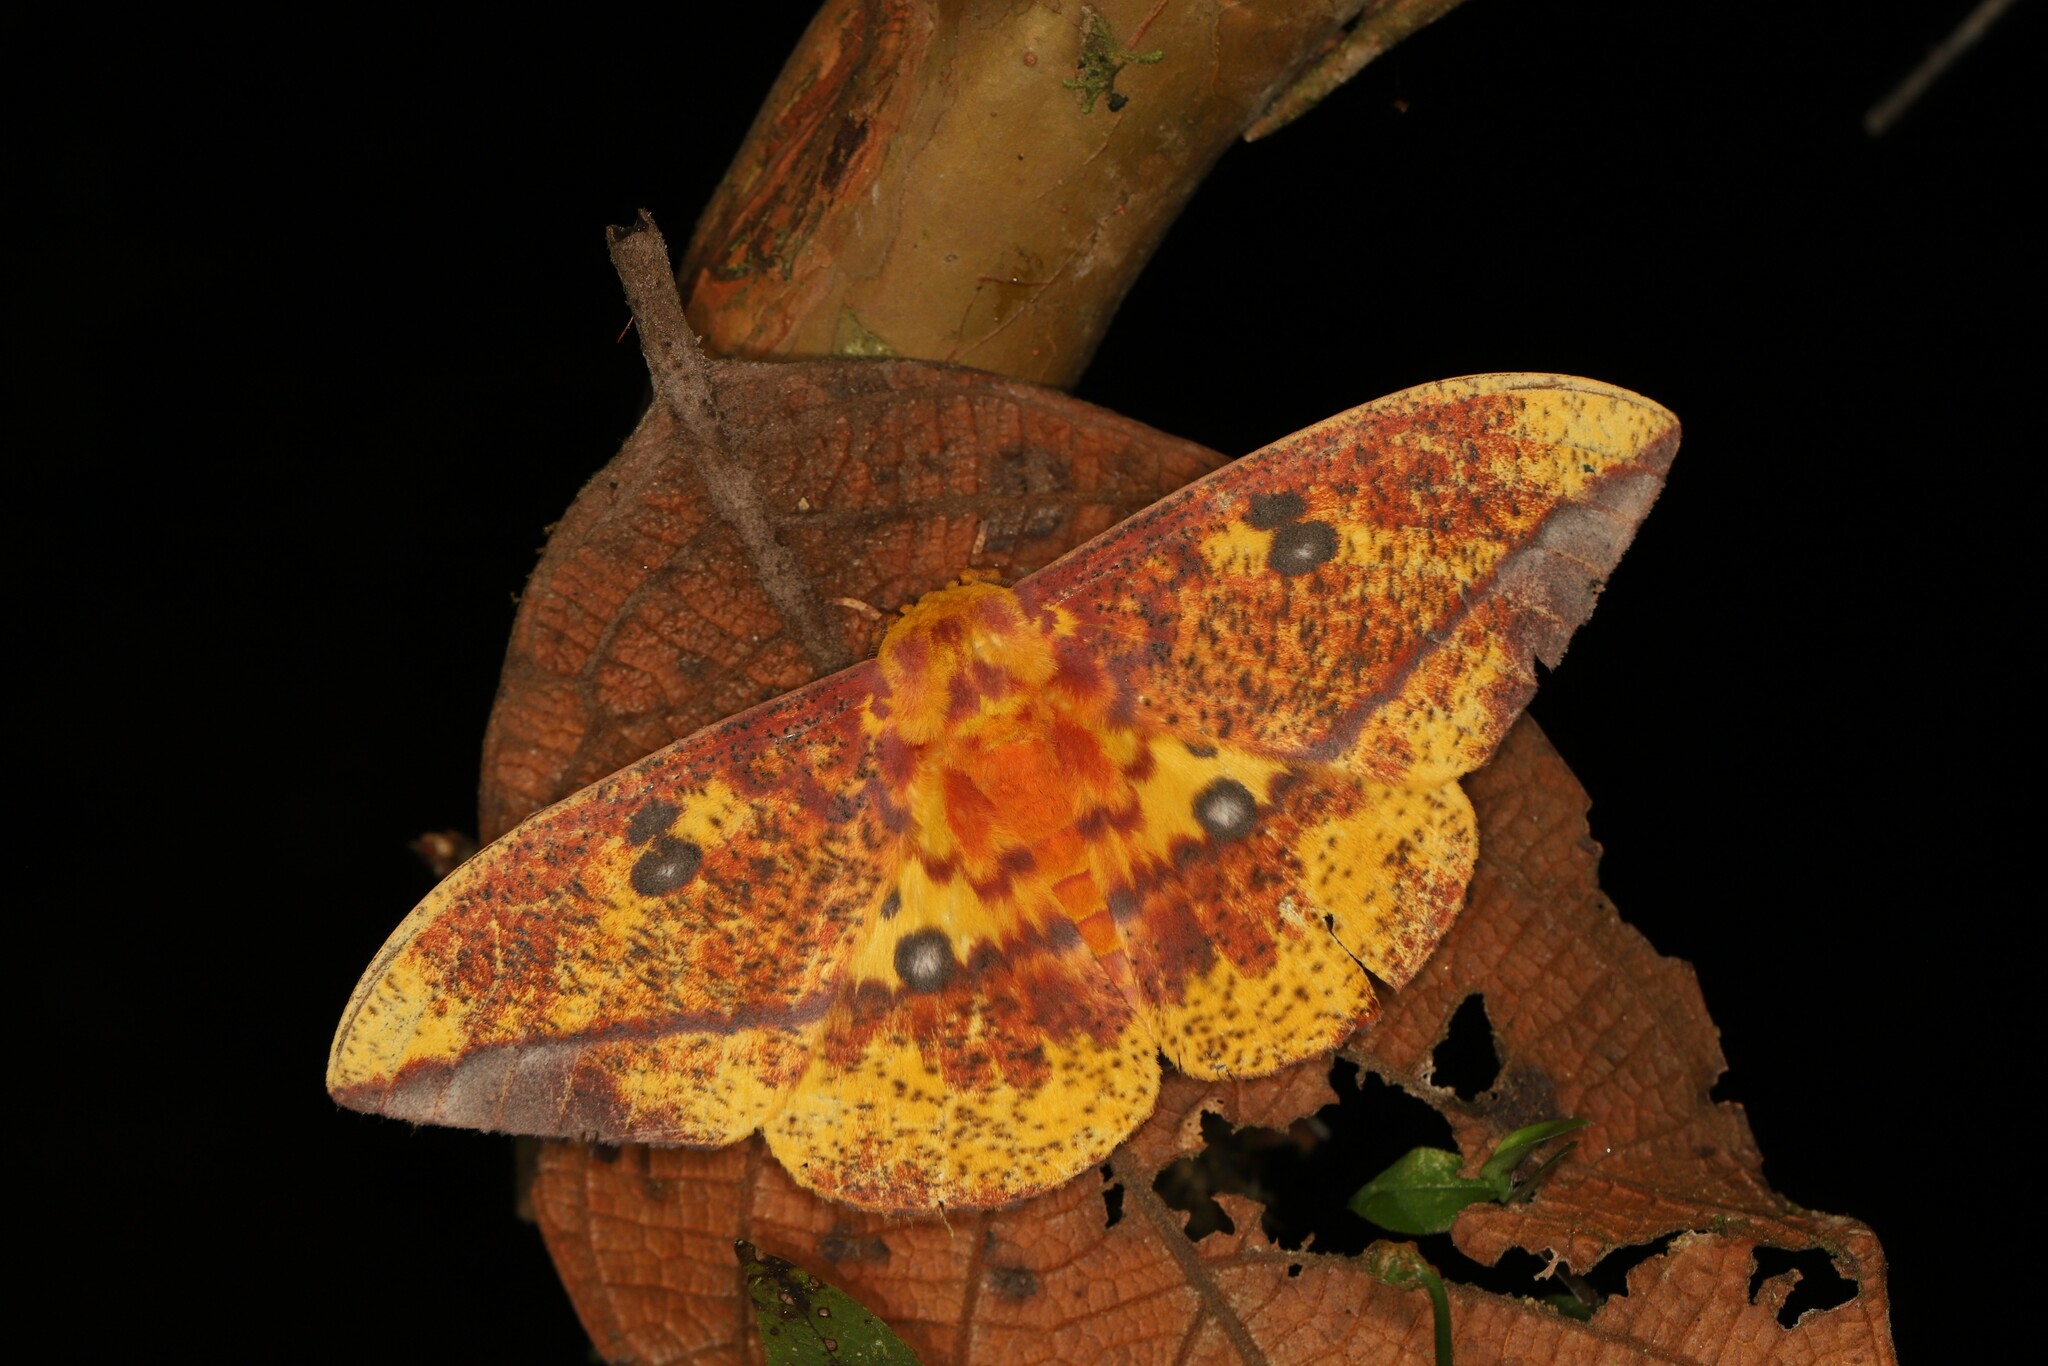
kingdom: Animalia
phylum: Arthropoda
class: Insecta
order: Lepidoptera
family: Saturniidae
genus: Eacles
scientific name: Eacles ormondei
